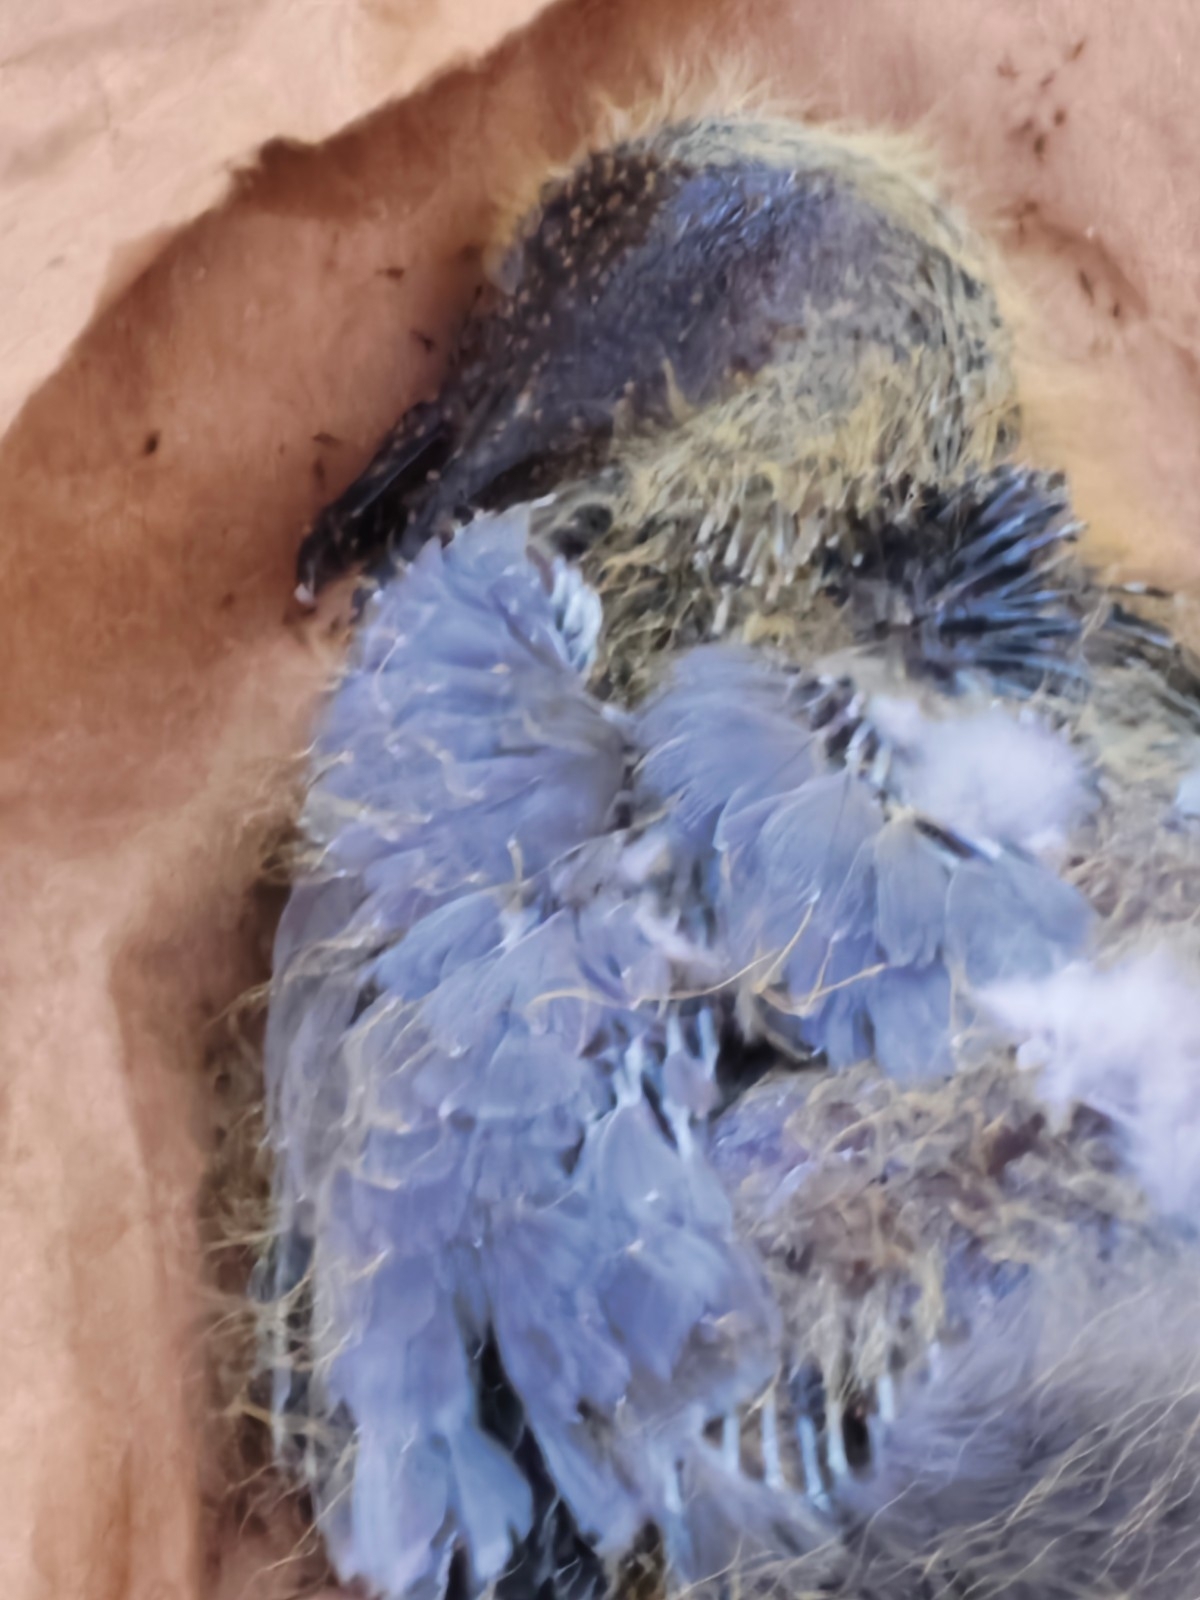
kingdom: Animalia
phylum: Chordata
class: Aves
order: Columbiformes
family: Columbidae
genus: Columba
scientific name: Columba livia
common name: Rock pigeon
